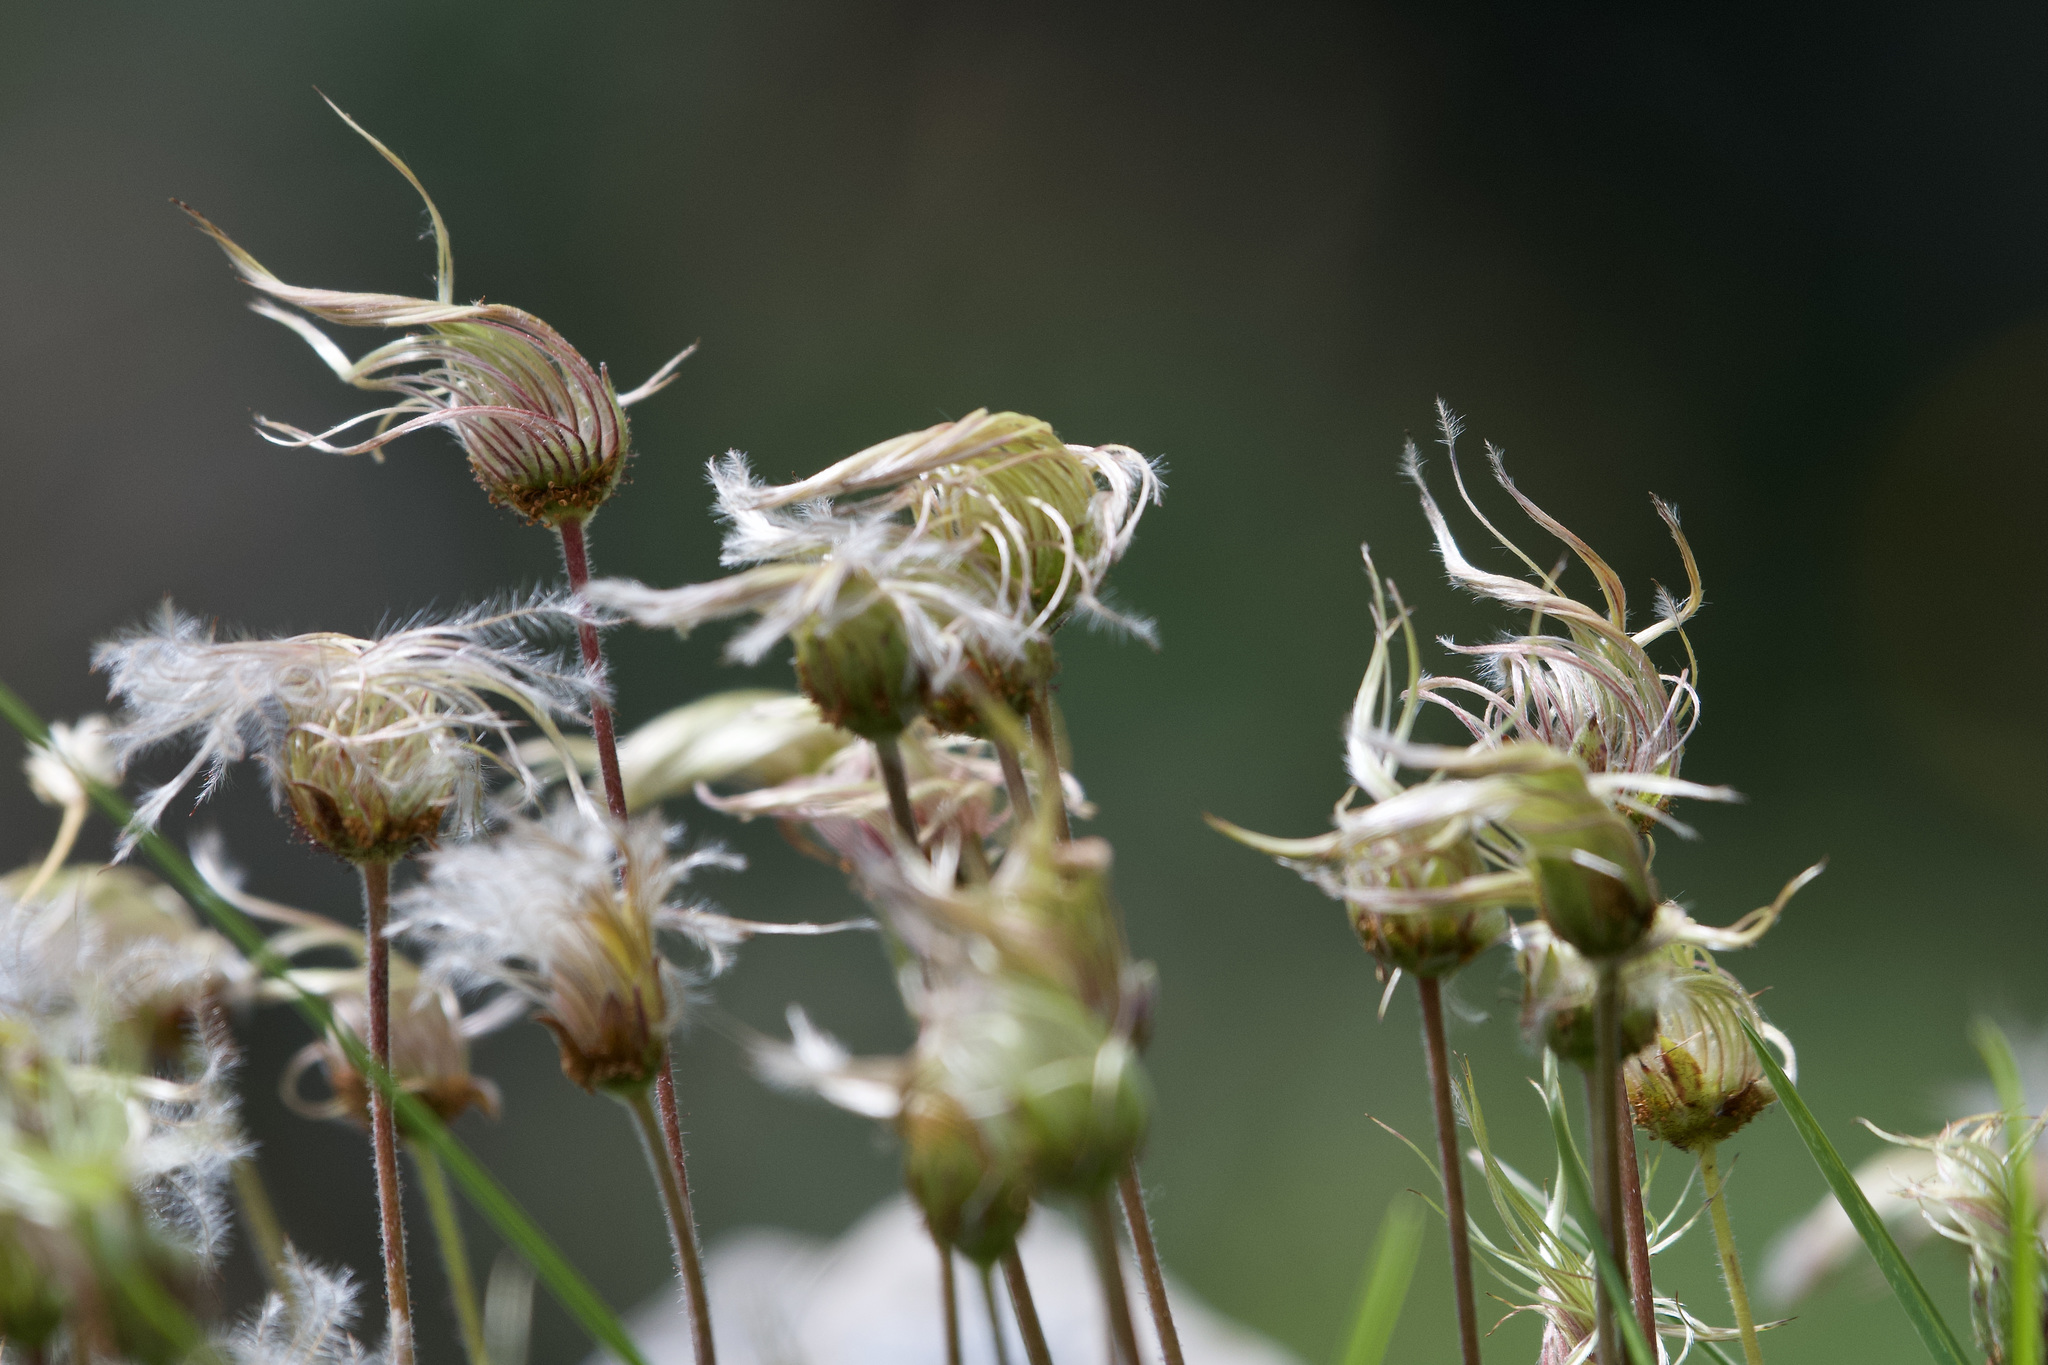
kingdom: Plantae
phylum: Tracheophyta
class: Magnoliopsida
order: Rosales
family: Rosaceae
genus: Dryas
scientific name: Dryas octopetala
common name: Eight-petal mountain-avens
